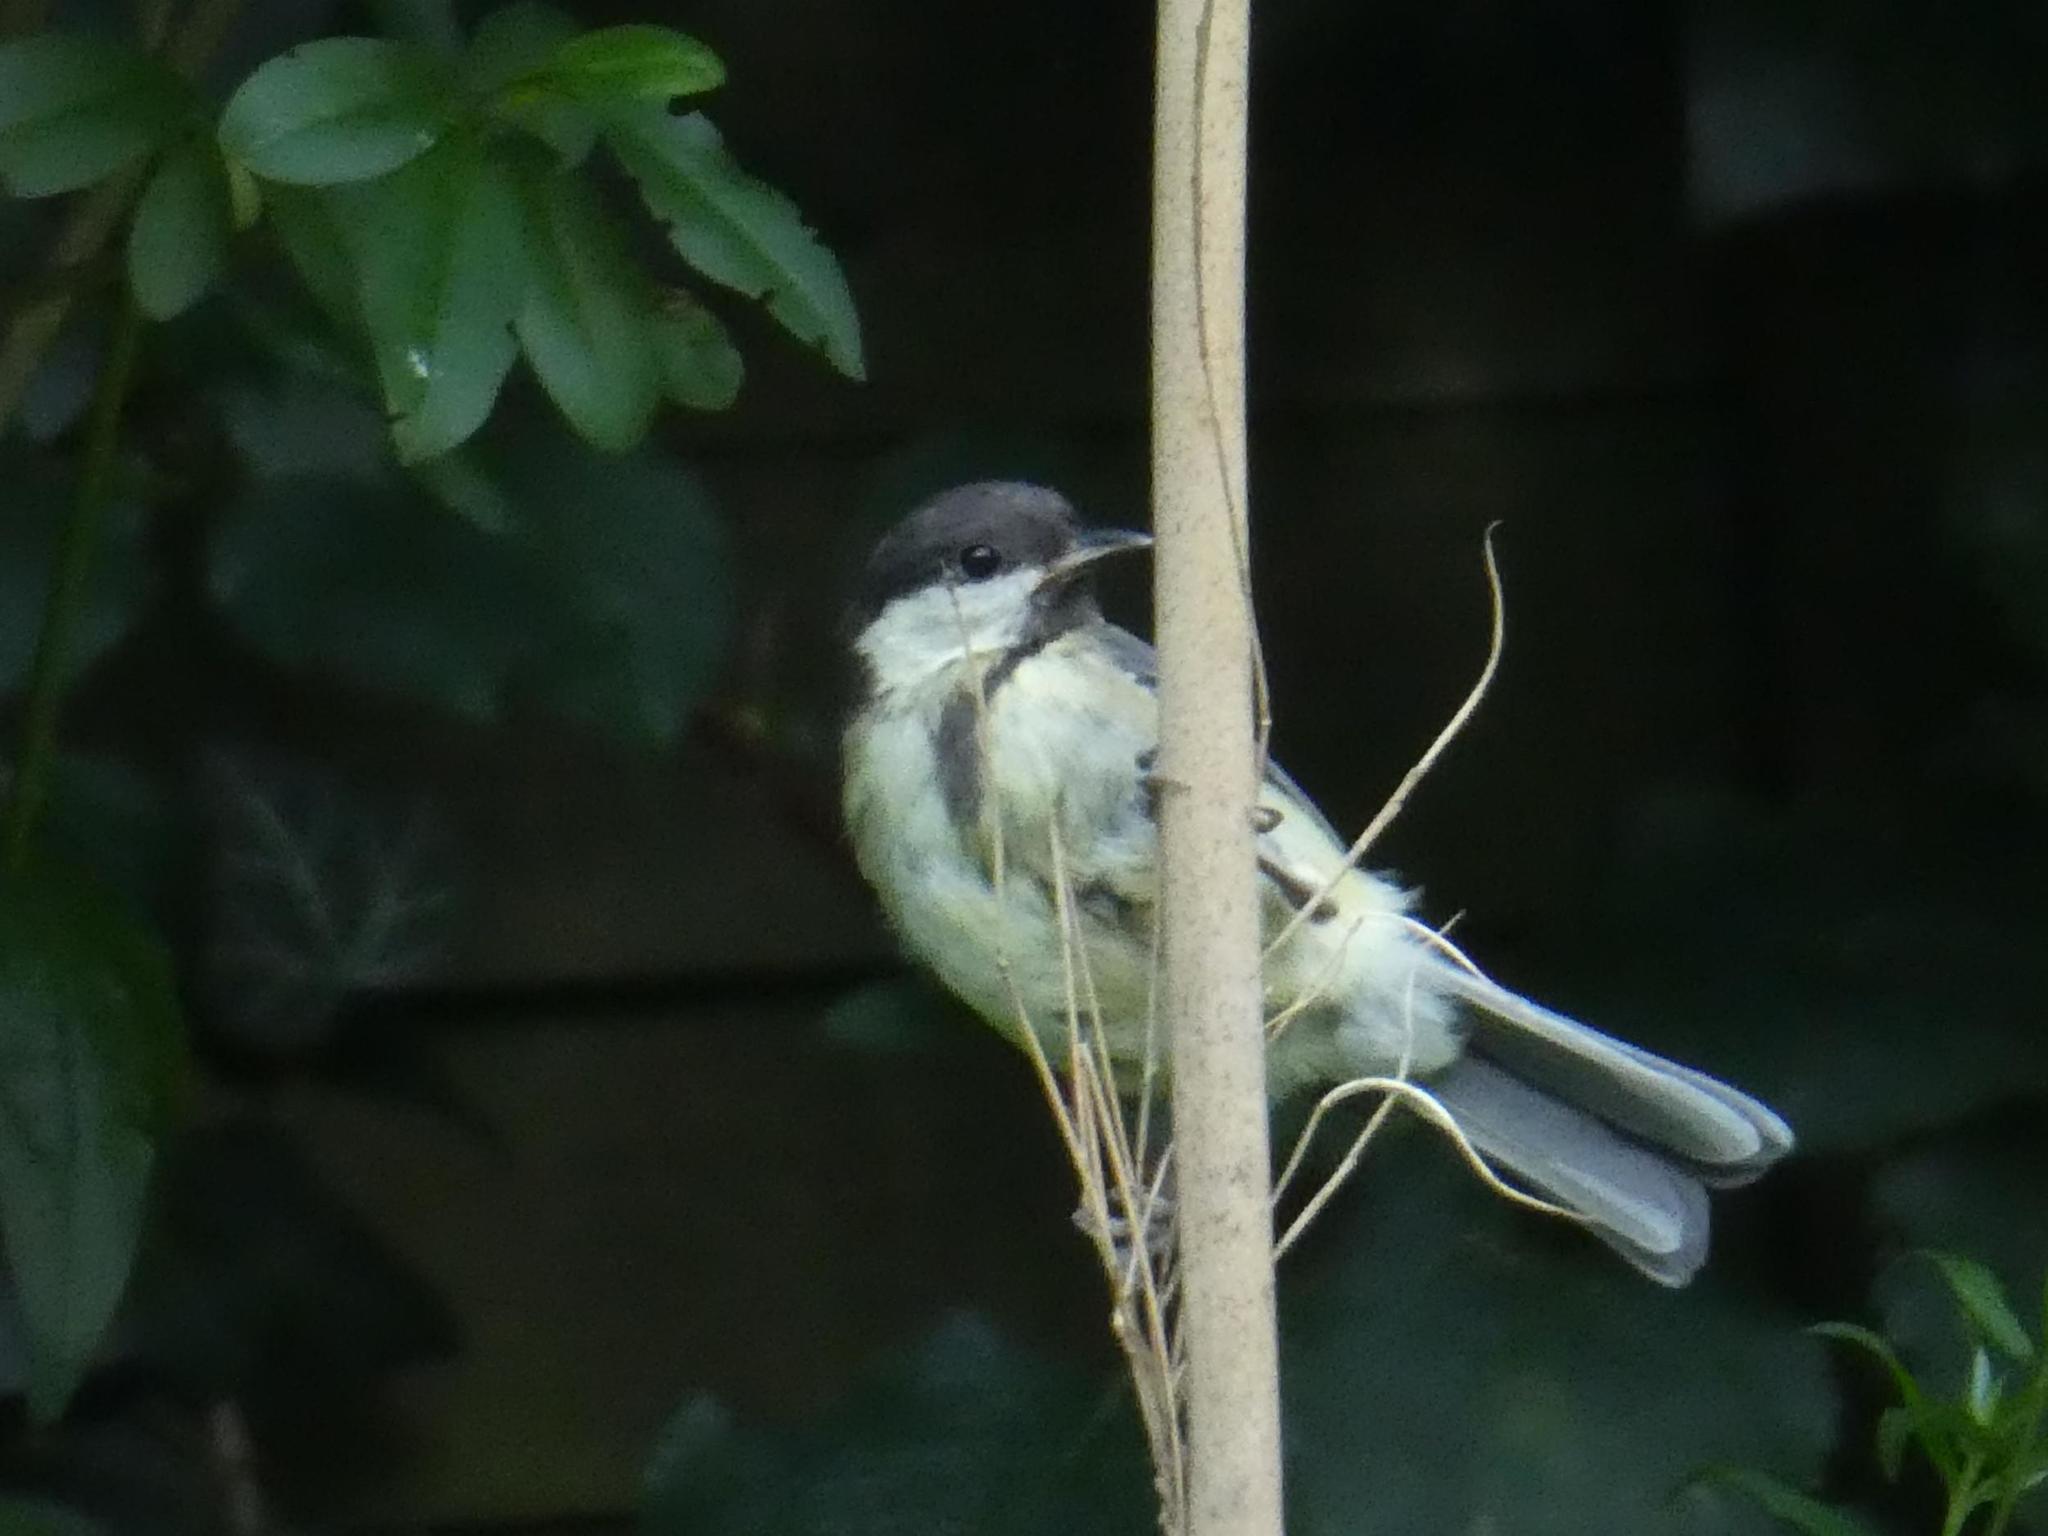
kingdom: Animalia
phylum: Chordata
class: Aves
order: Passeriformes
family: Paridae
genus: Parus
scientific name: Parus major
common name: Great tit
